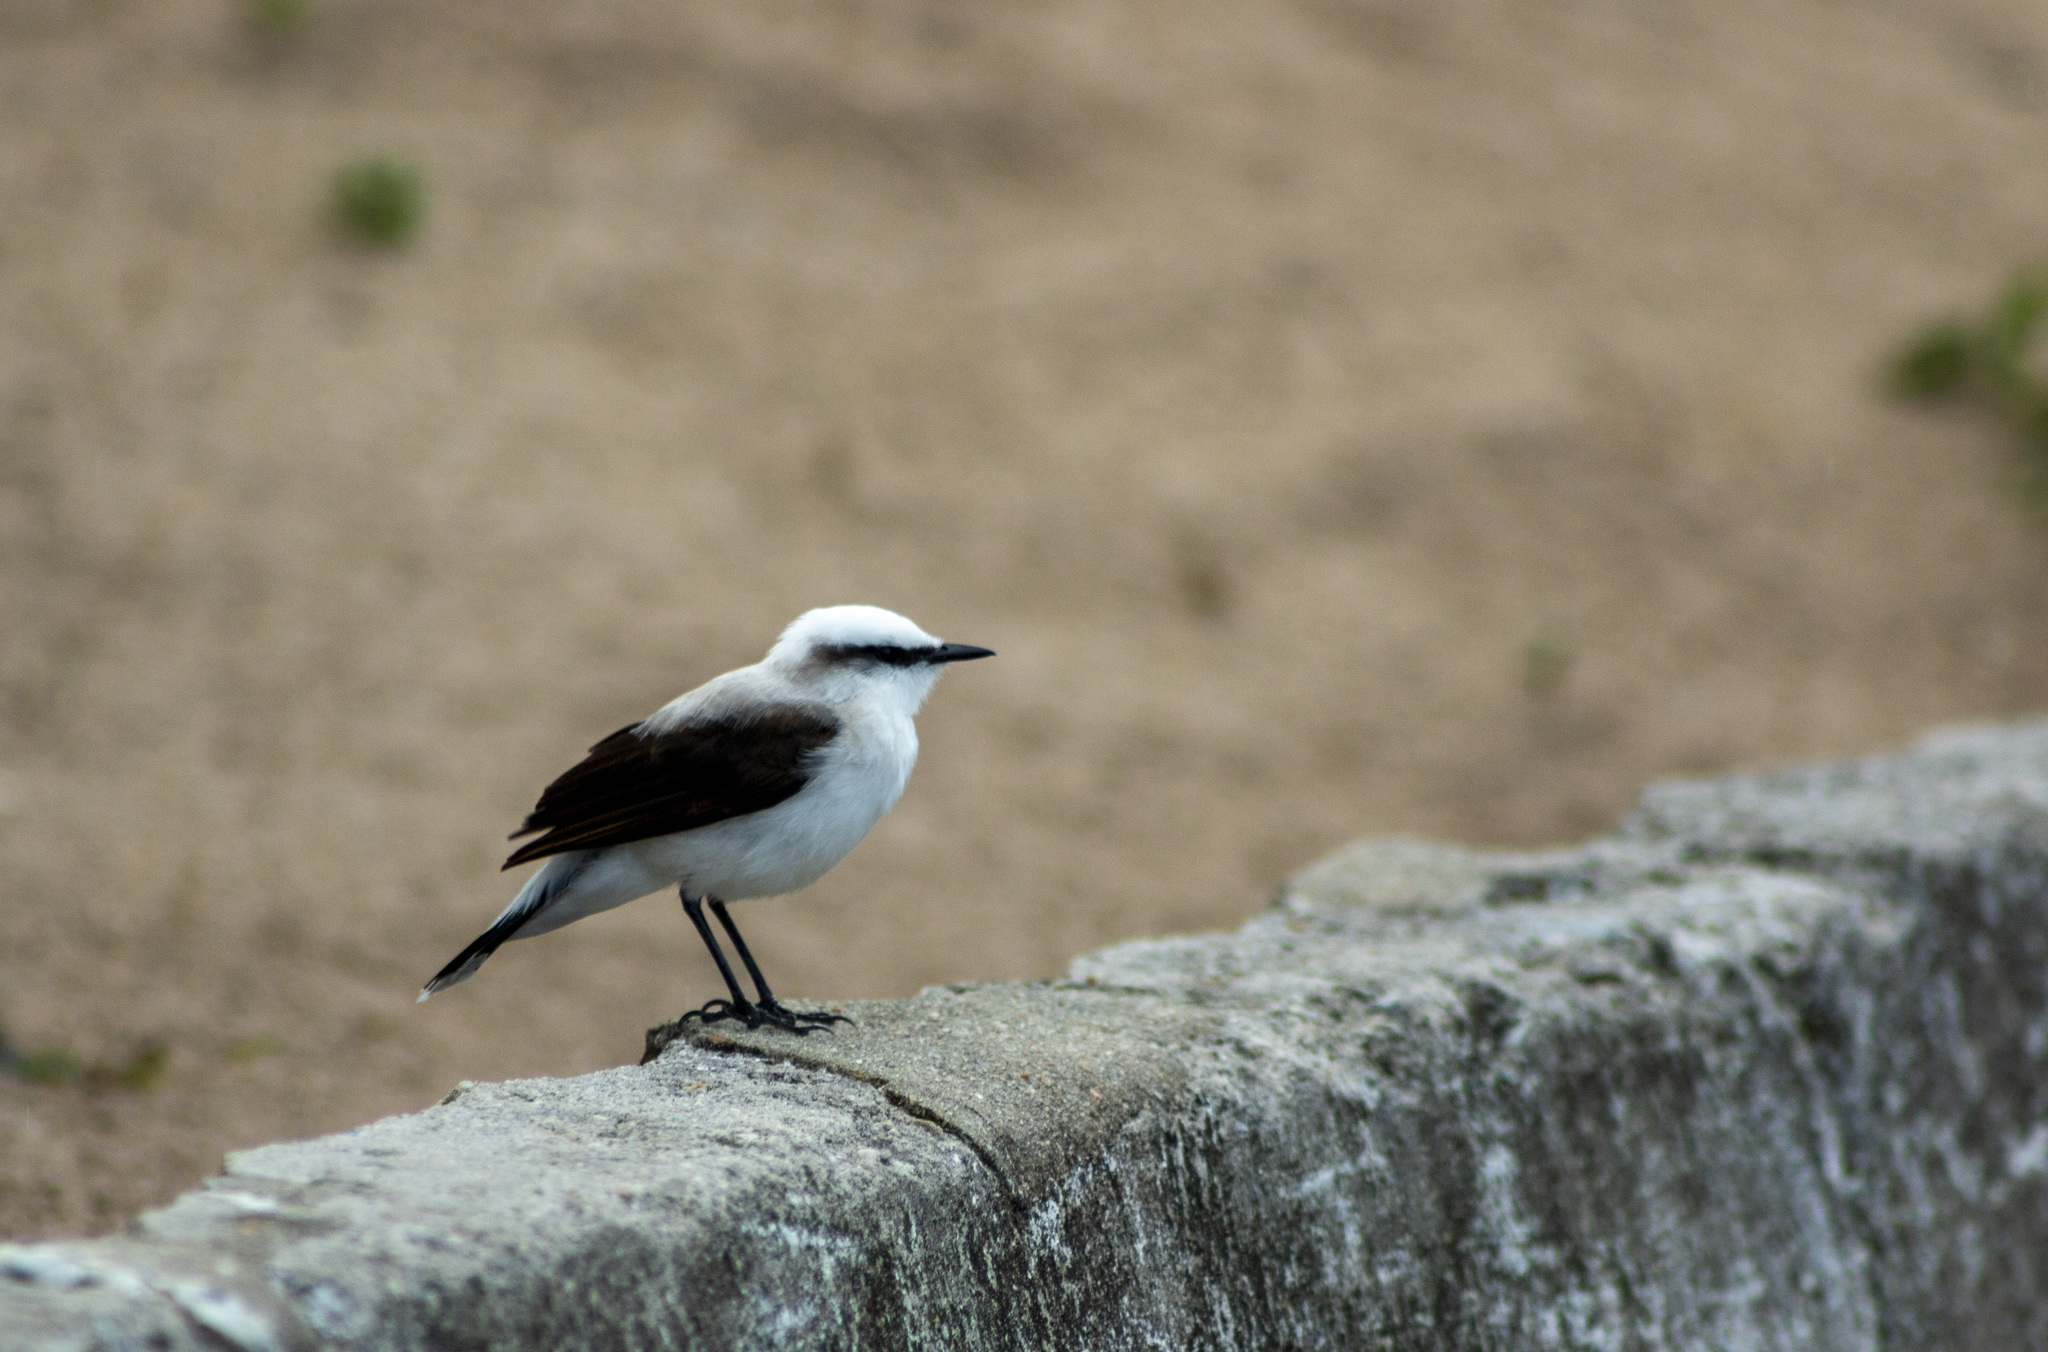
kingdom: Animalia
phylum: Chordata
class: Aves
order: Passeriformes
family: Tyrannidae
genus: Fluvicola
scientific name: Fluvicola nengeta
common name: Masked water tyrant
